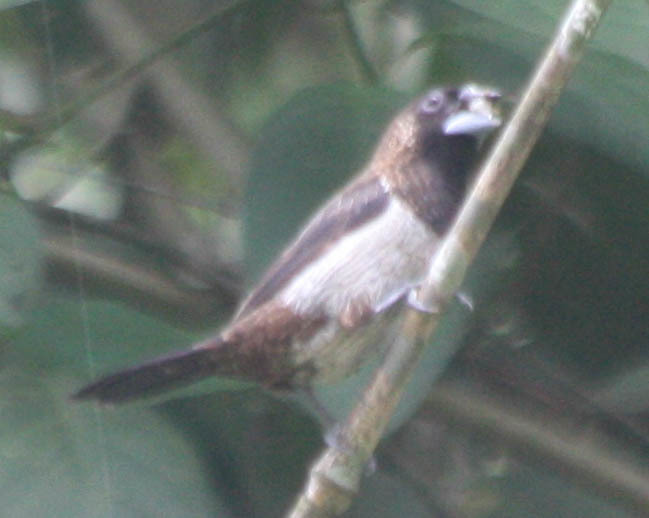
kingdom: Animalia
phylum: Chordata
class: Aves
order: Passeriformes
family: Estrildidae
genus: Lonchura
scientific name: Lonchura striata
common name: White-rumped munia
